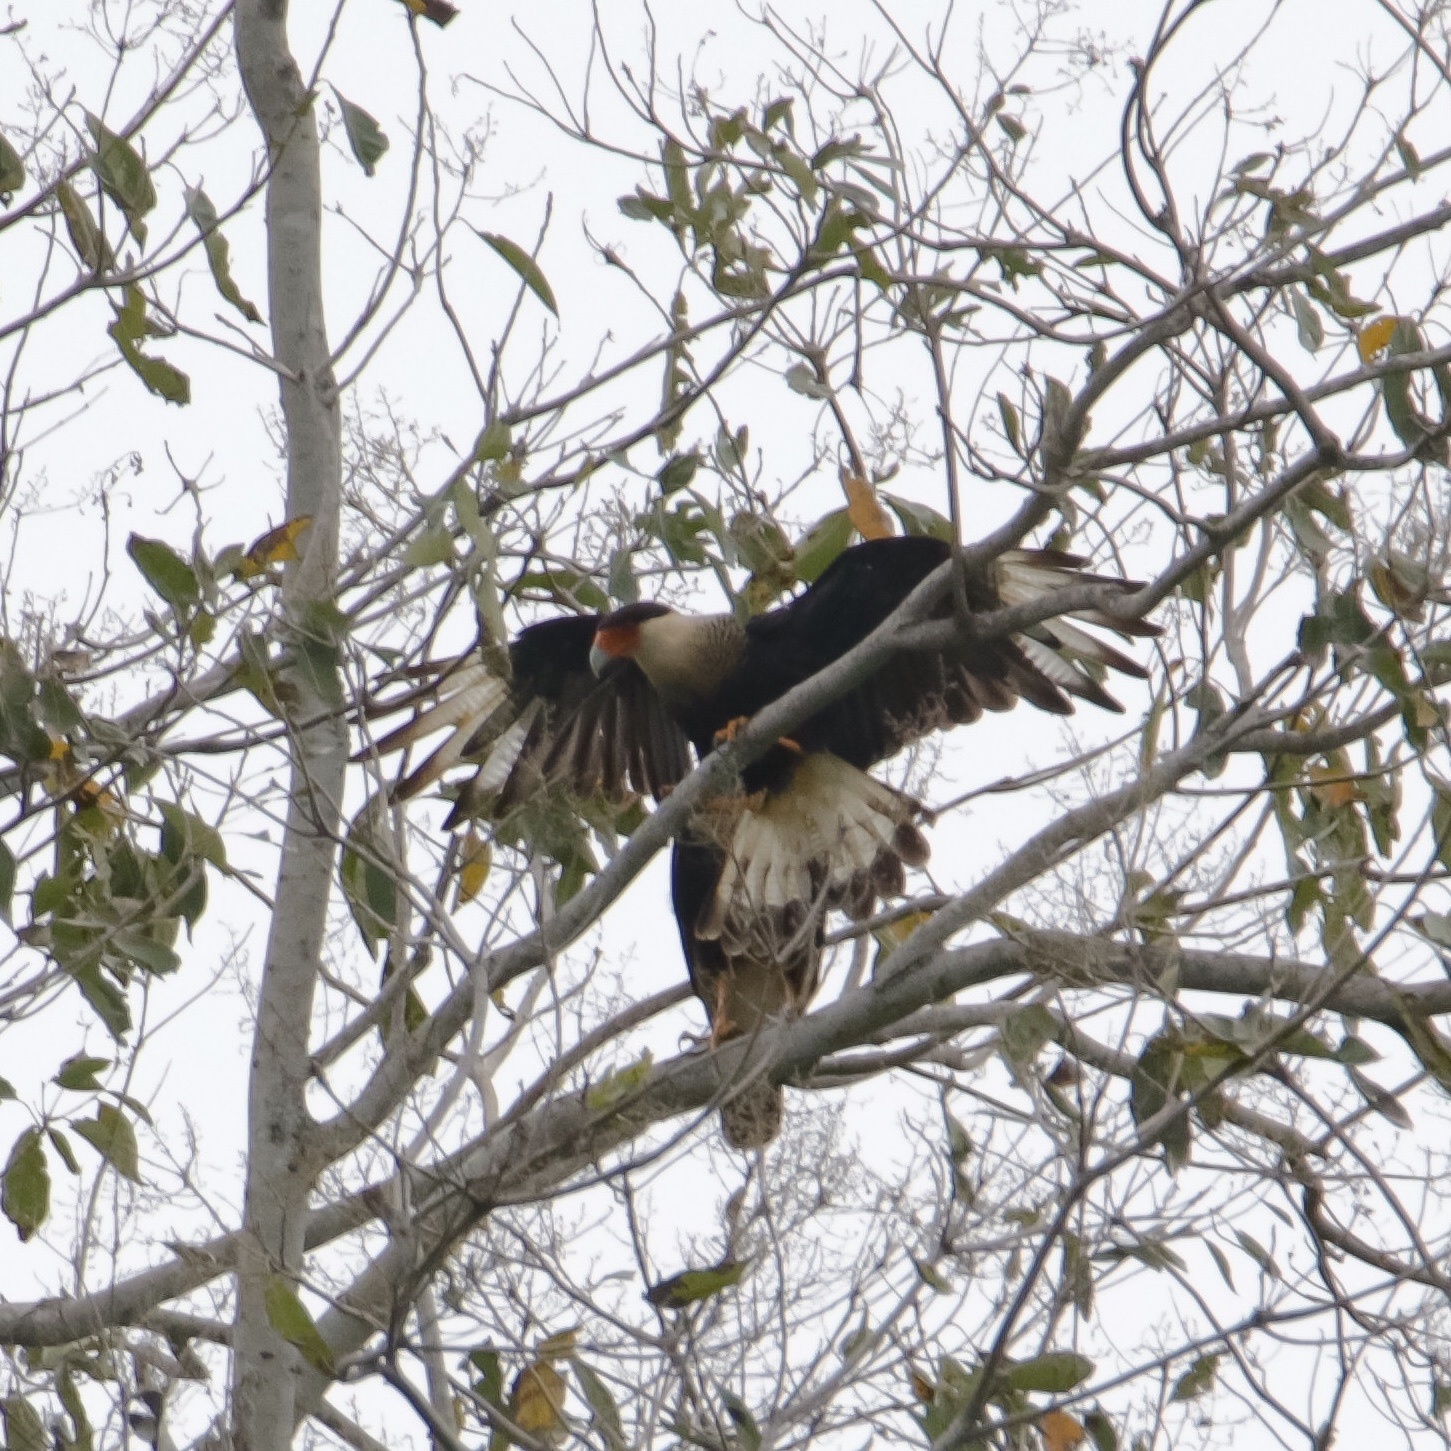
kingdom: Animalia
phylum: Chordata
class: Aves
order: Falconiformes
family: Falconidae
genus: Caracara
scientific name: Caracara plancus
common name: Southern caracara
